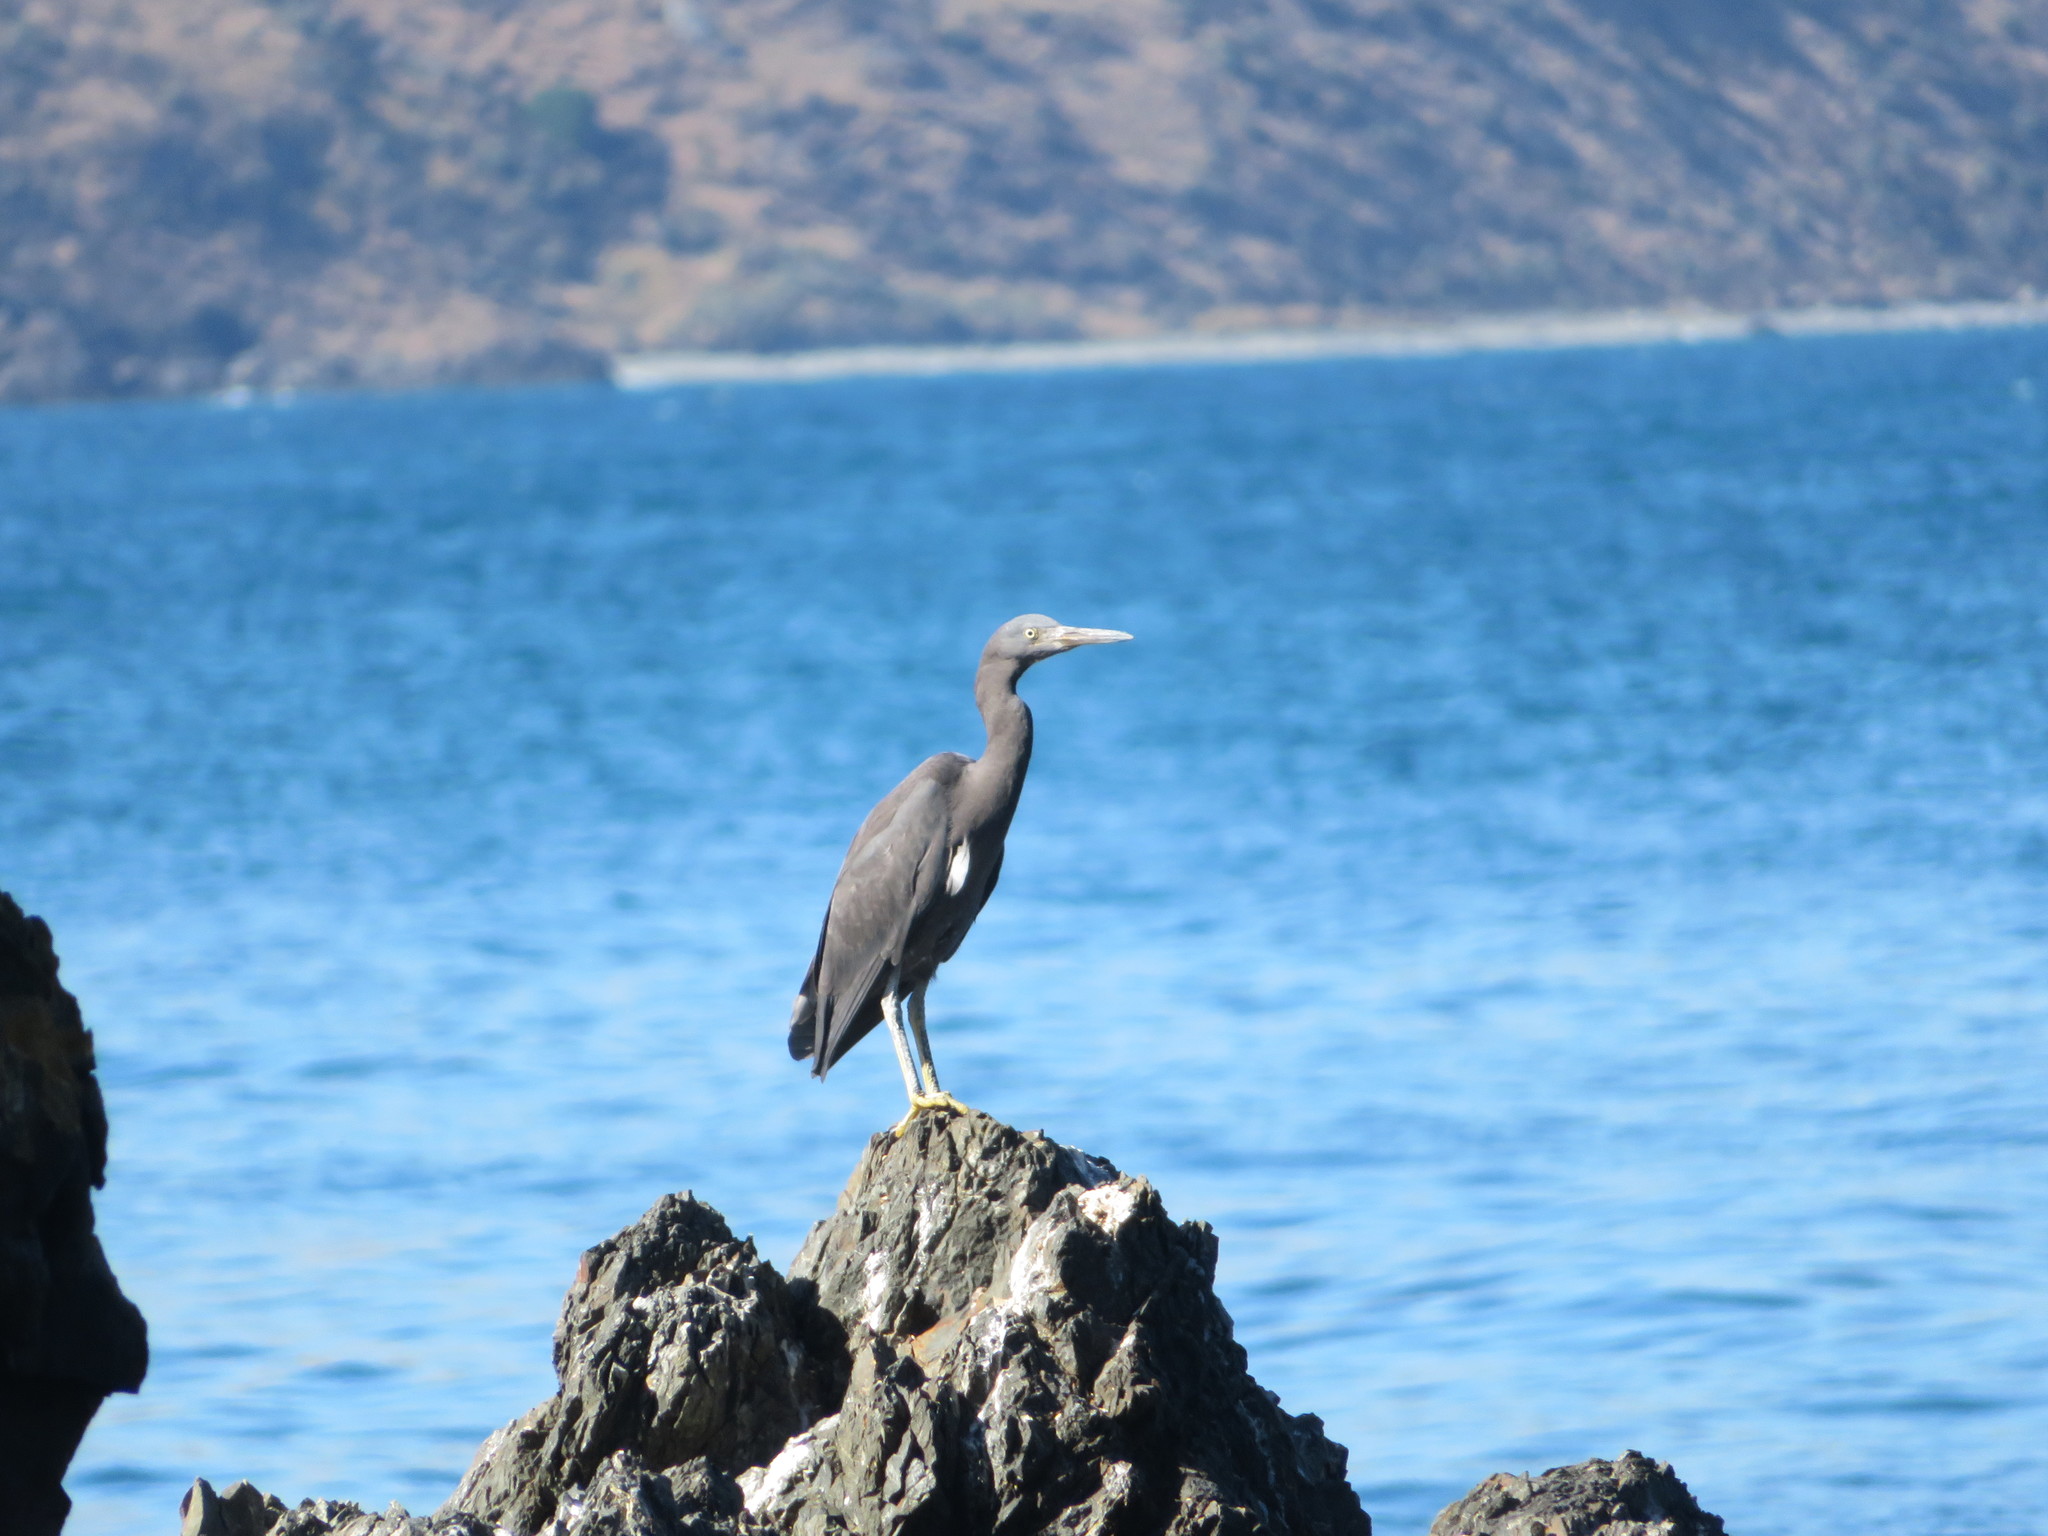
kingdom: Animalia
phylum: Chordata
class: Aves
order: Pelecaniformes
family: Ardeidae
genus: Egretta
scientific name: Egretta sacra
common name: Pacific reef heron
